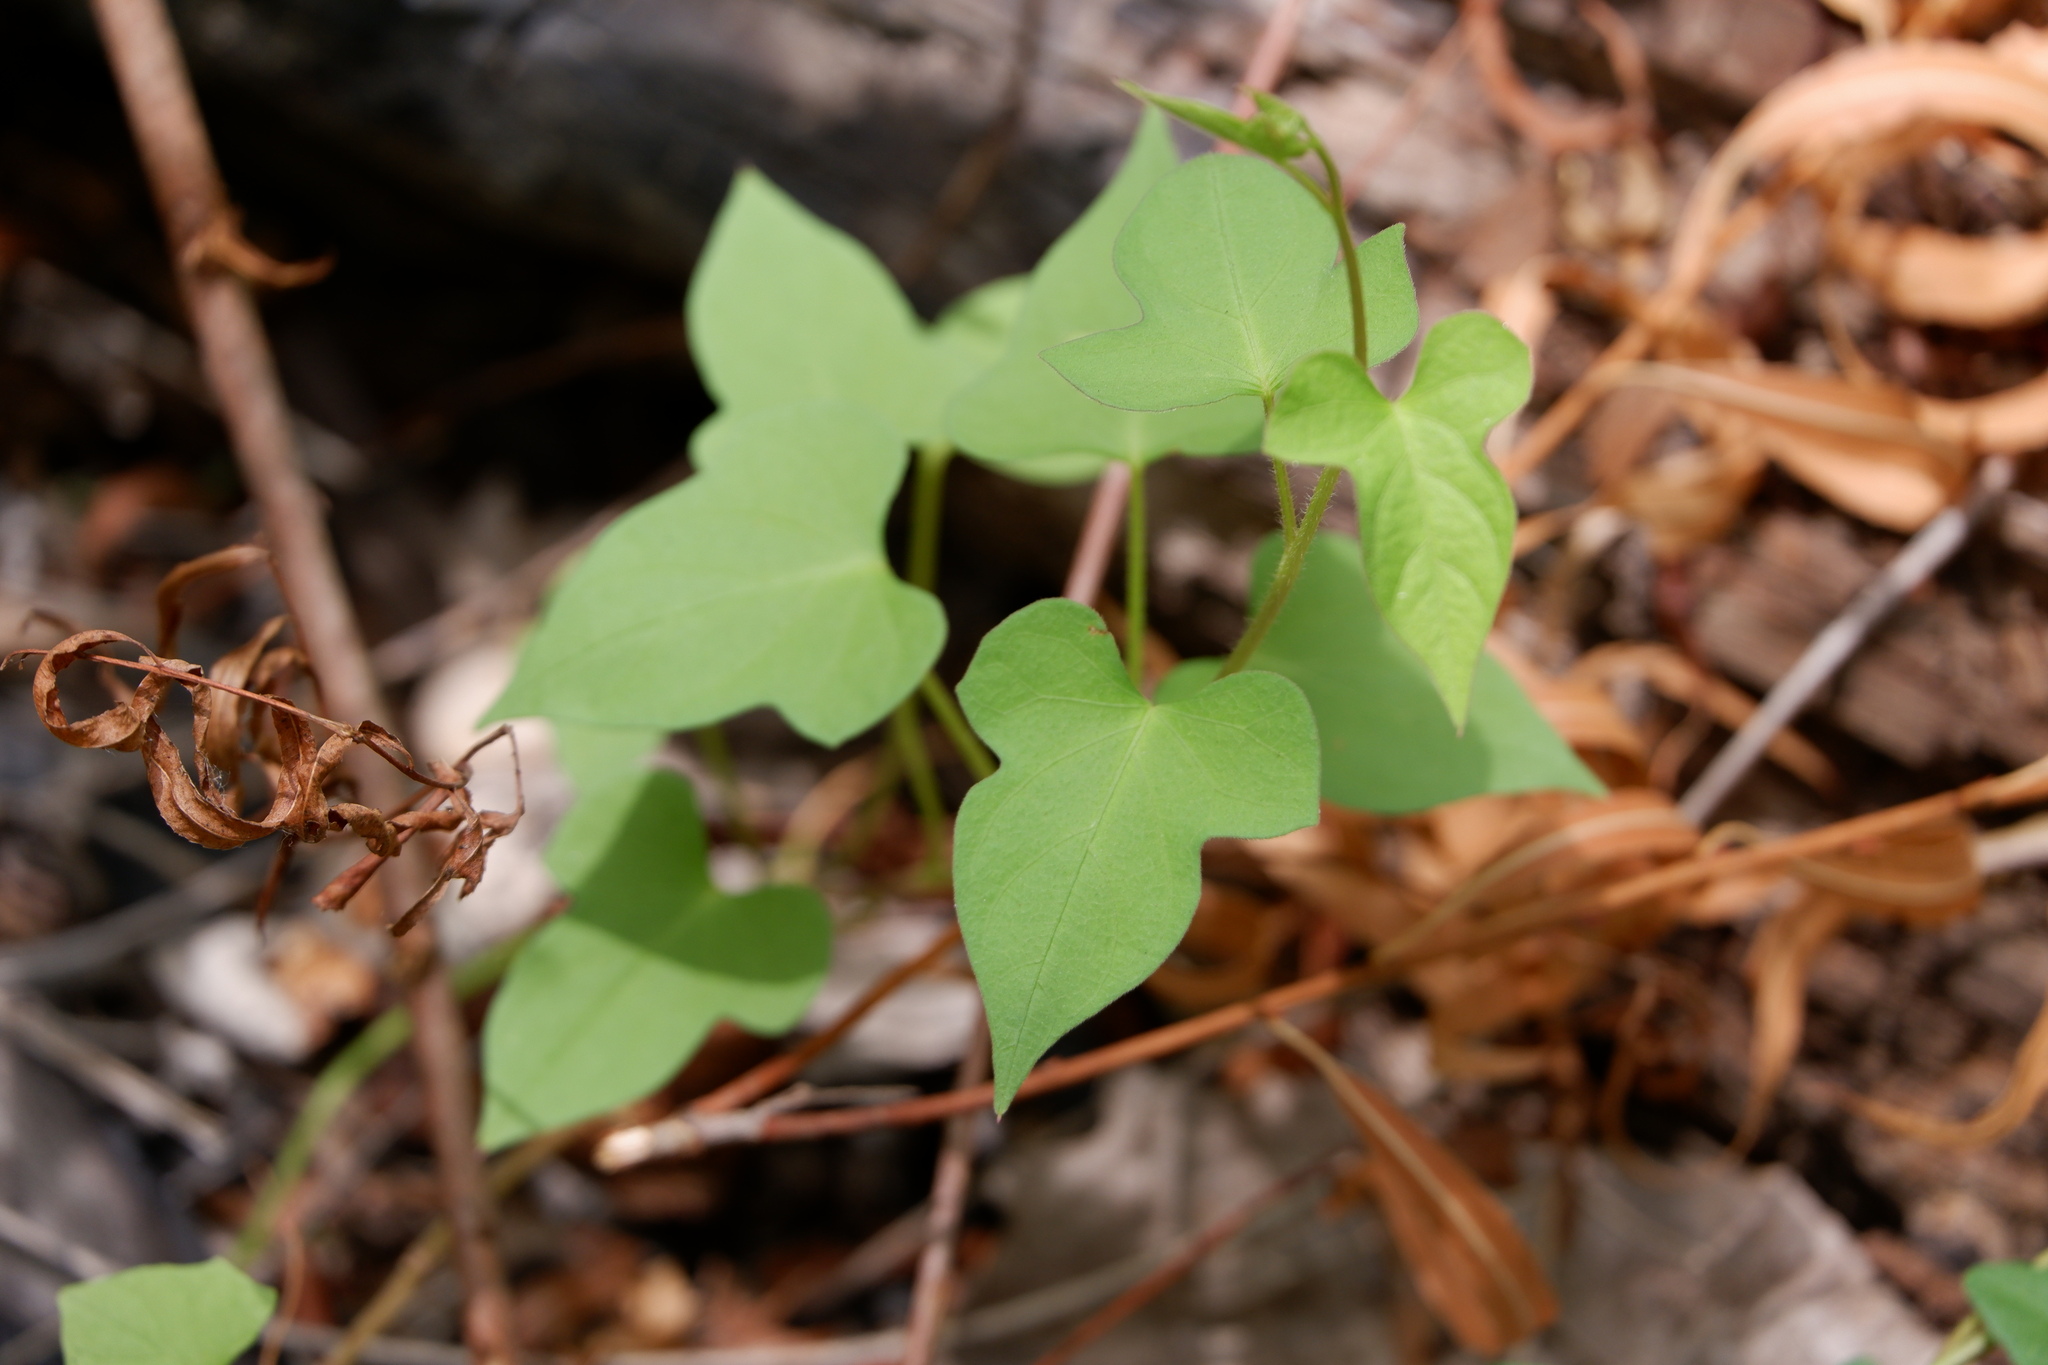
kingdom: Plantae
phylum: Tracheophyta
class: Magnoliopsida
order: Solanales
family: Convolvulaceae
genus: Ipomoea
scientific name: Ipomoea cordatotriloba
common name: Cotton morning glory
